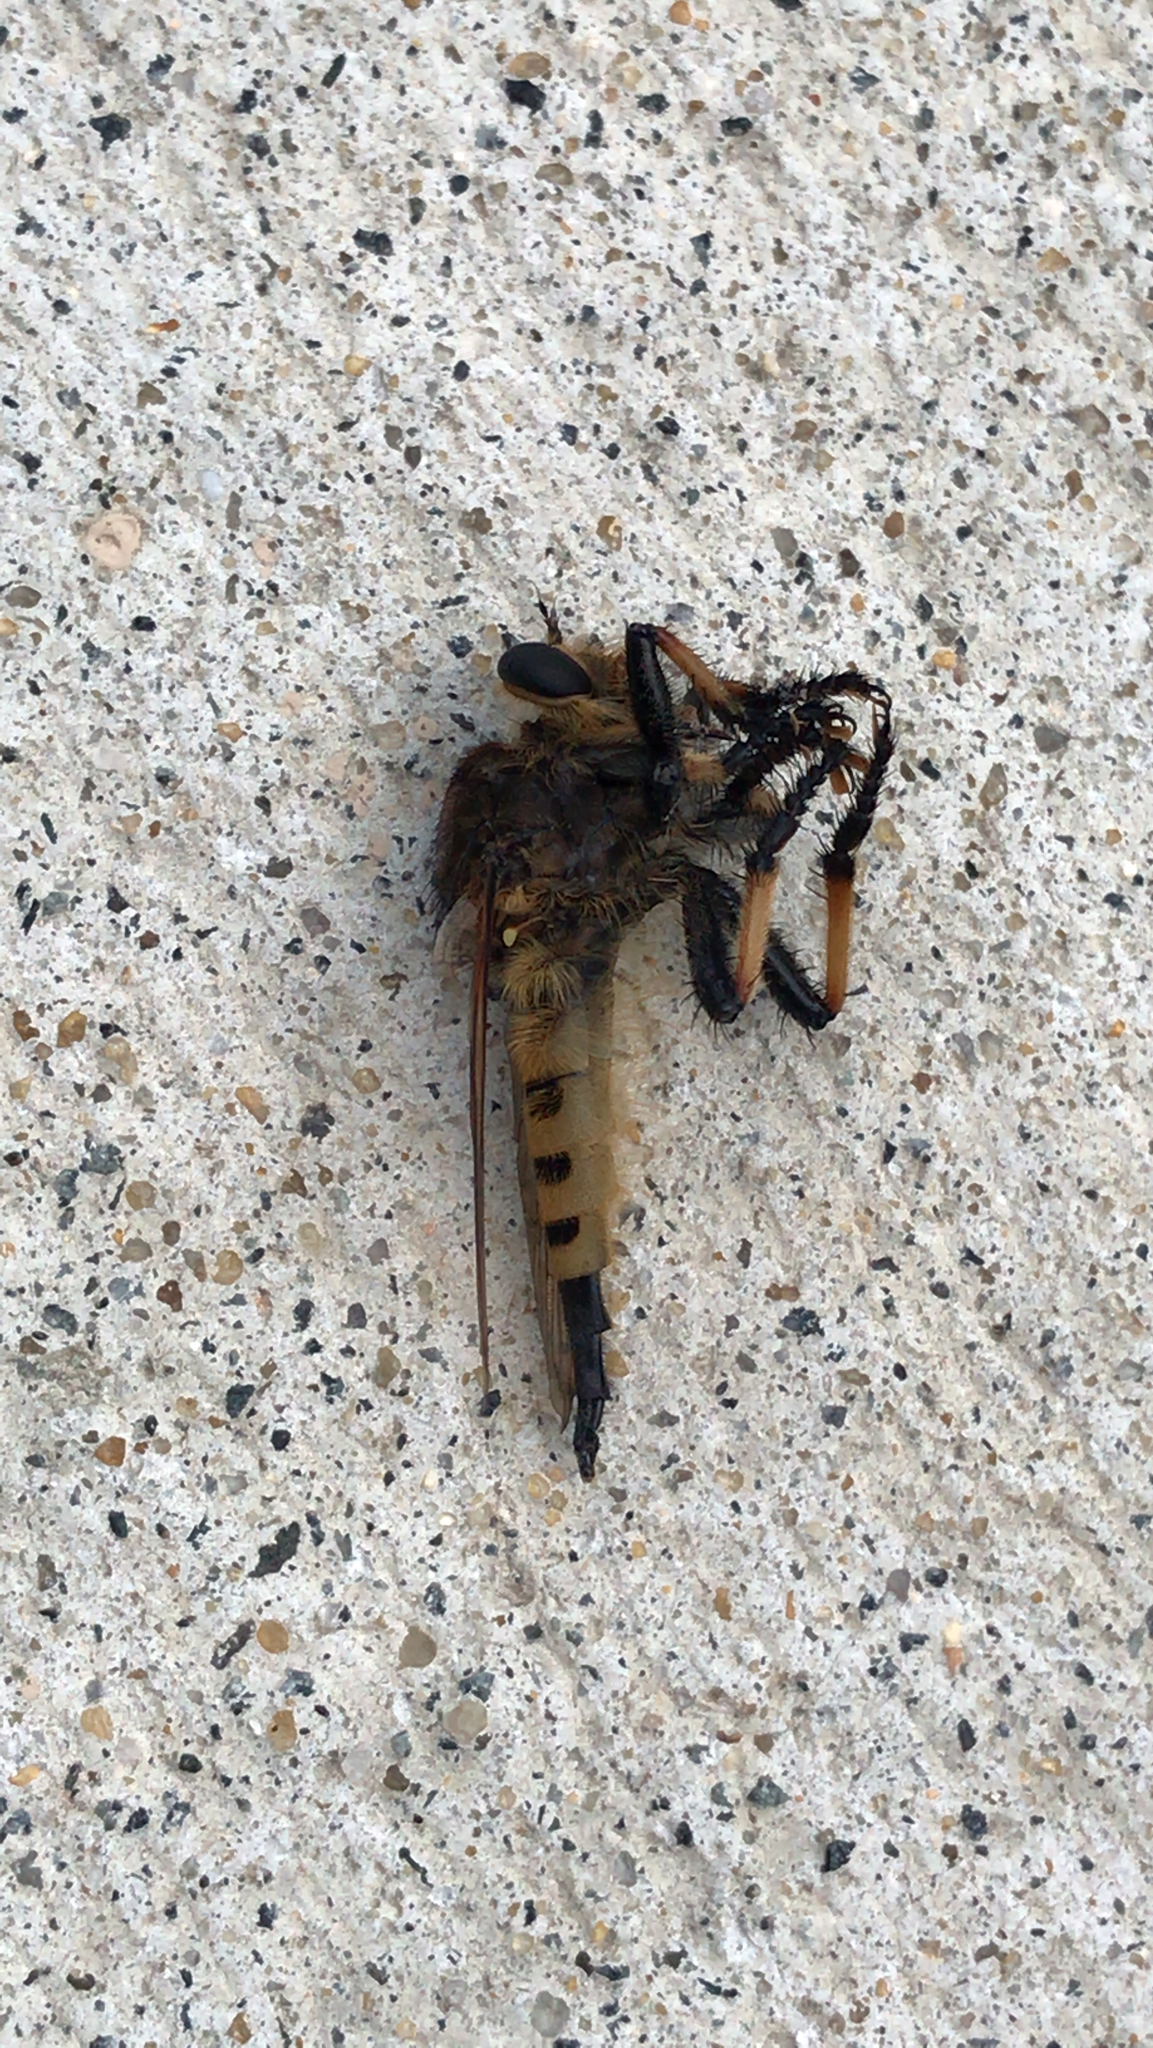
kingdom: Animalia
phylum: Arthropoda
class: Insecta
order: Diptera
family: Asilidae
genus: Promachus
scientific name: Promachus rufipes
